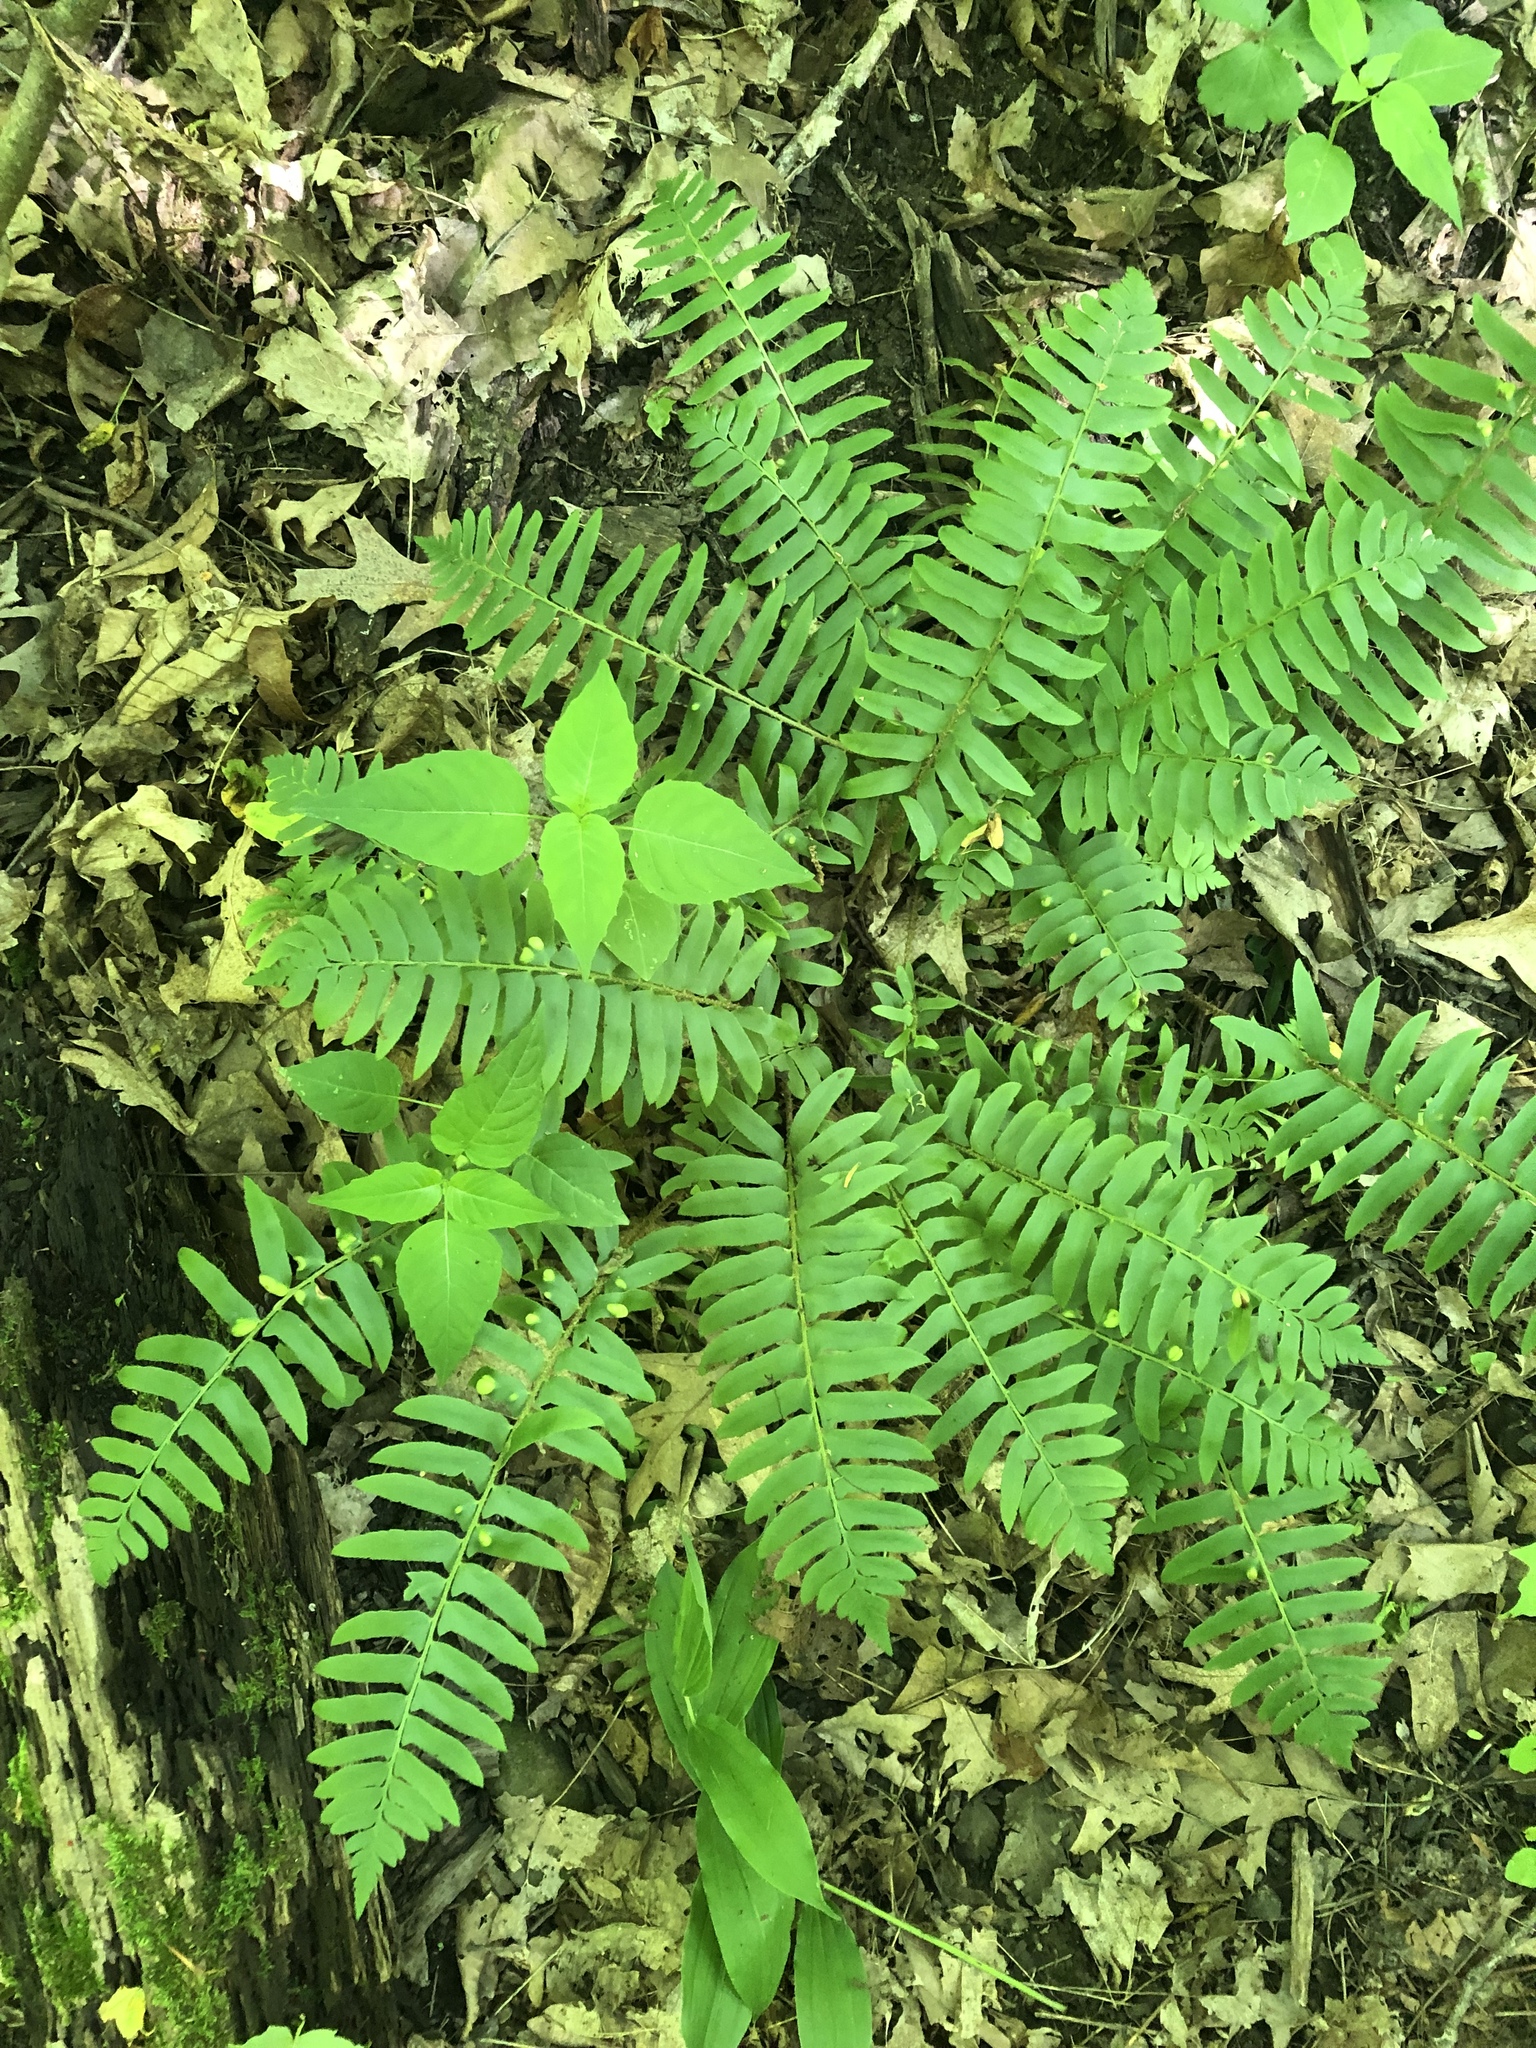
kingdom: Plantae
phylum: Tracheophyta
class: Polypodiopsida
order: Polypodiales
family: Dryopteridaceae
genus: Polystichum
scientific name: Polystichum acrostichoides
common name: Christmas fern
